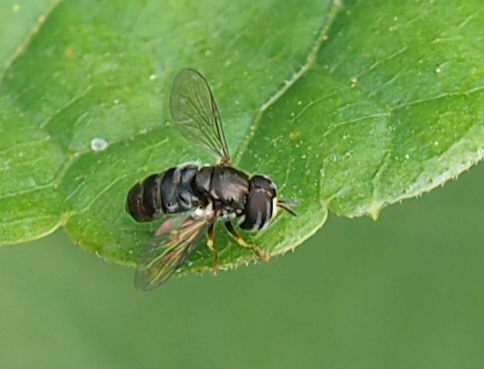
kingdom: Animalia
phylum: Arthropoda
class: Insecta
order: Diptera
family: Syrphidae
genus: Paragus
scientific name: Paragus
